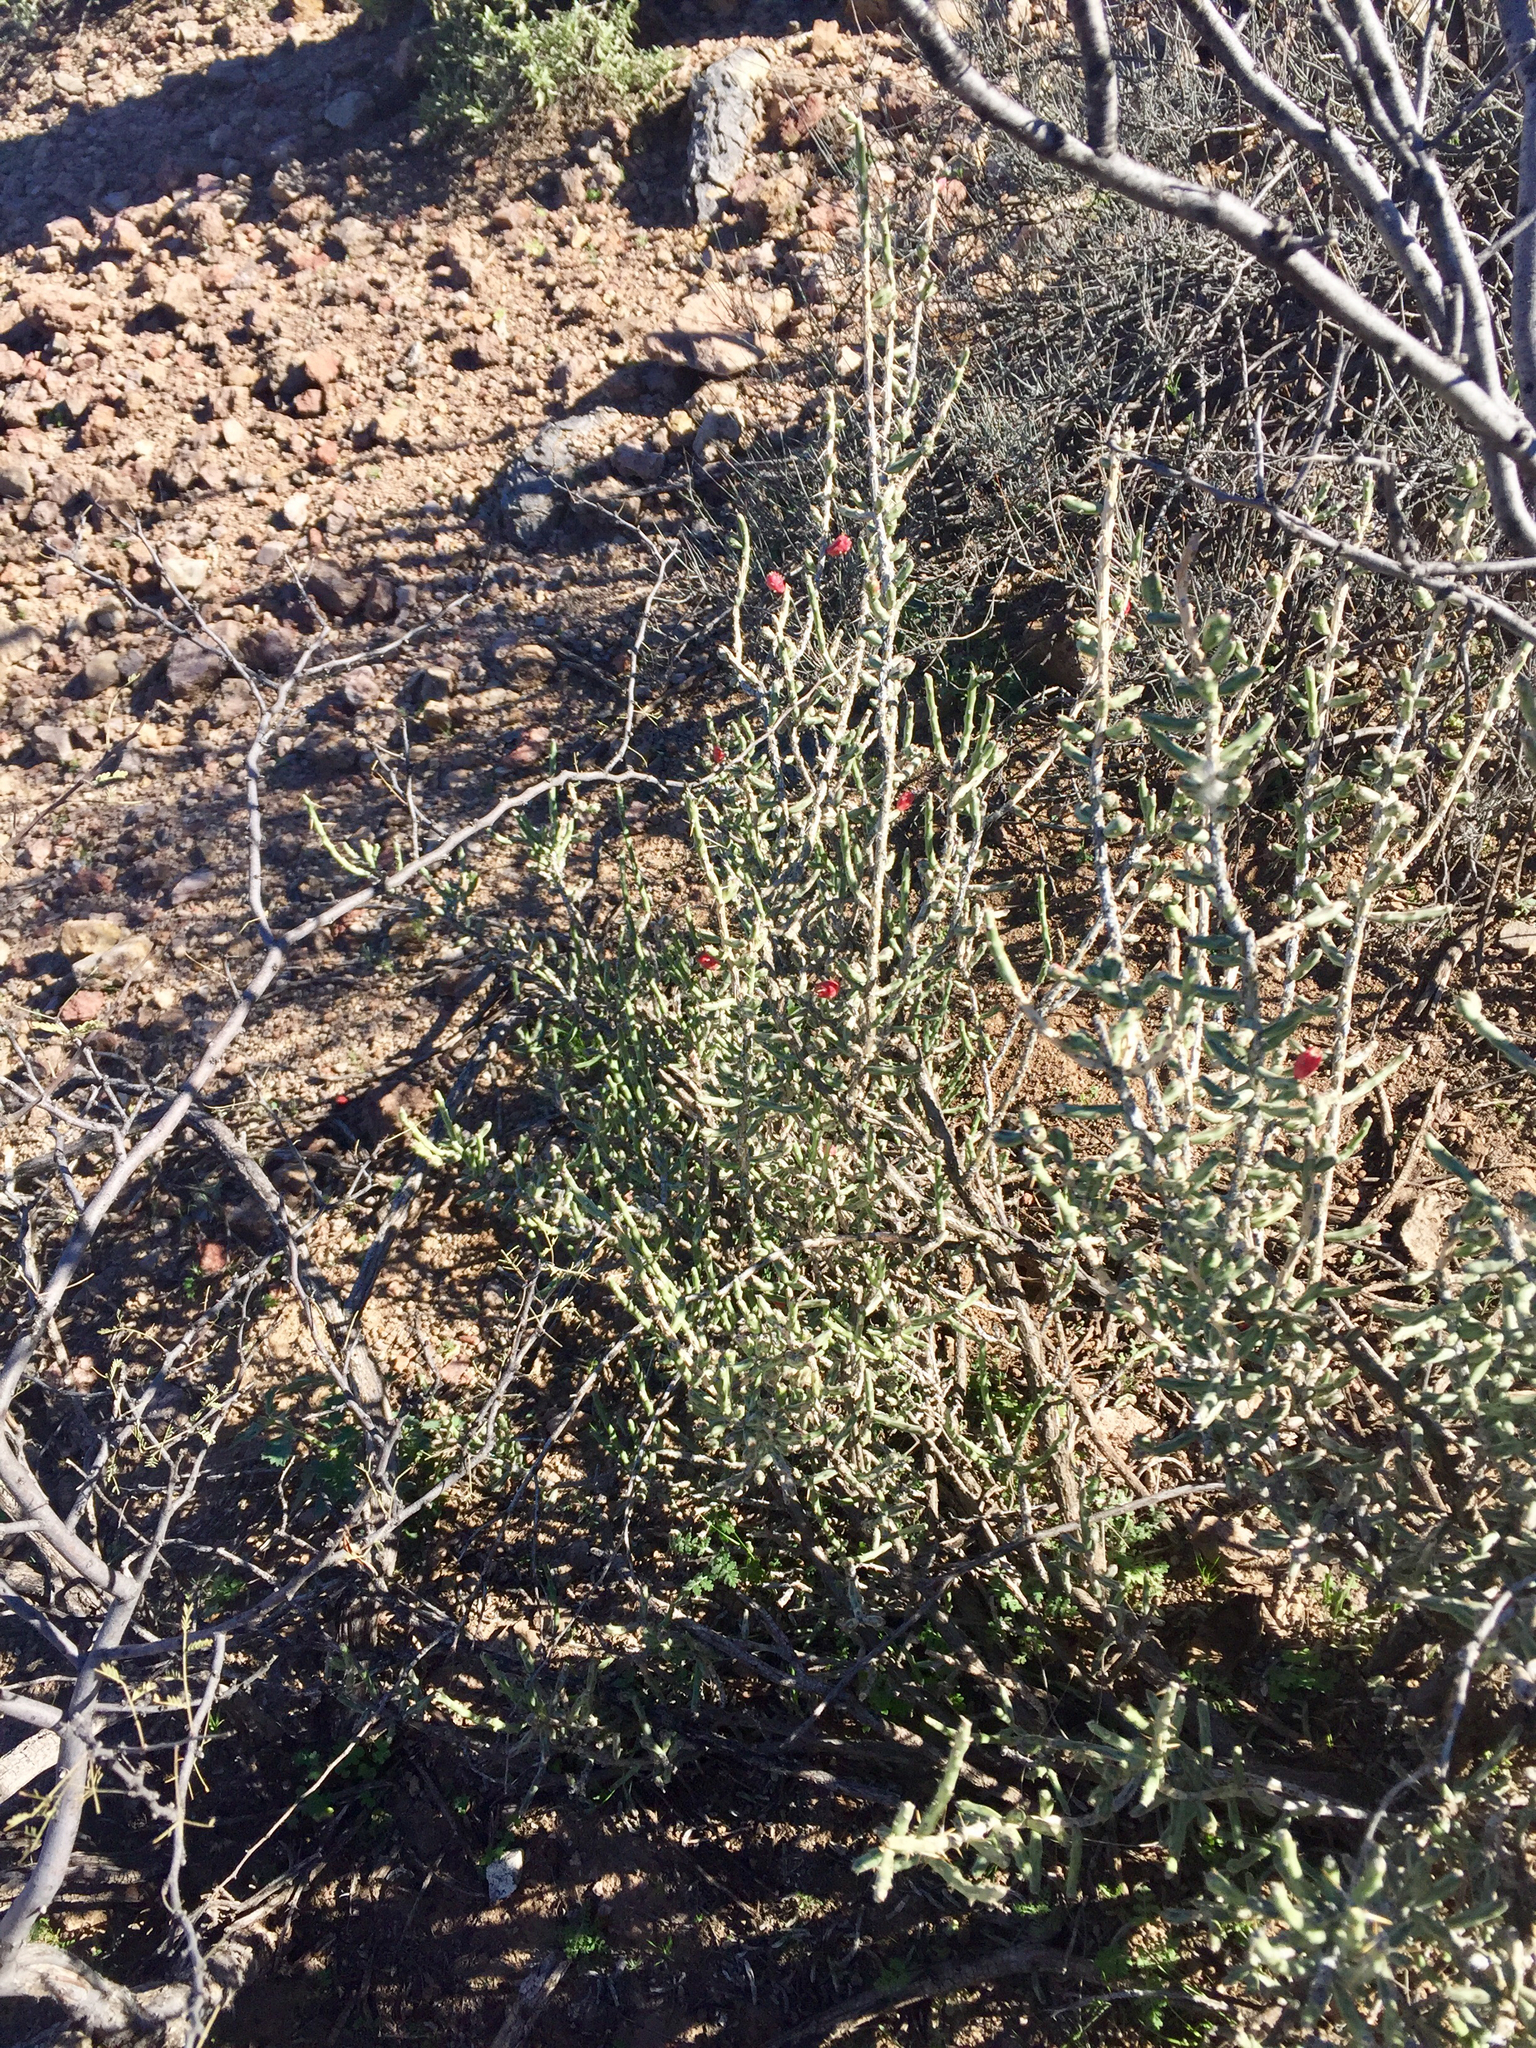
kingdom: Plantae
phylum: Tracheophyta
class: Magnoliopsida
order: Caryophyllales
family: Cactaceae
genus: Cylindropuntia
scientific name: Cylindropuntia leptocaulis
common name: Christmas cactus
